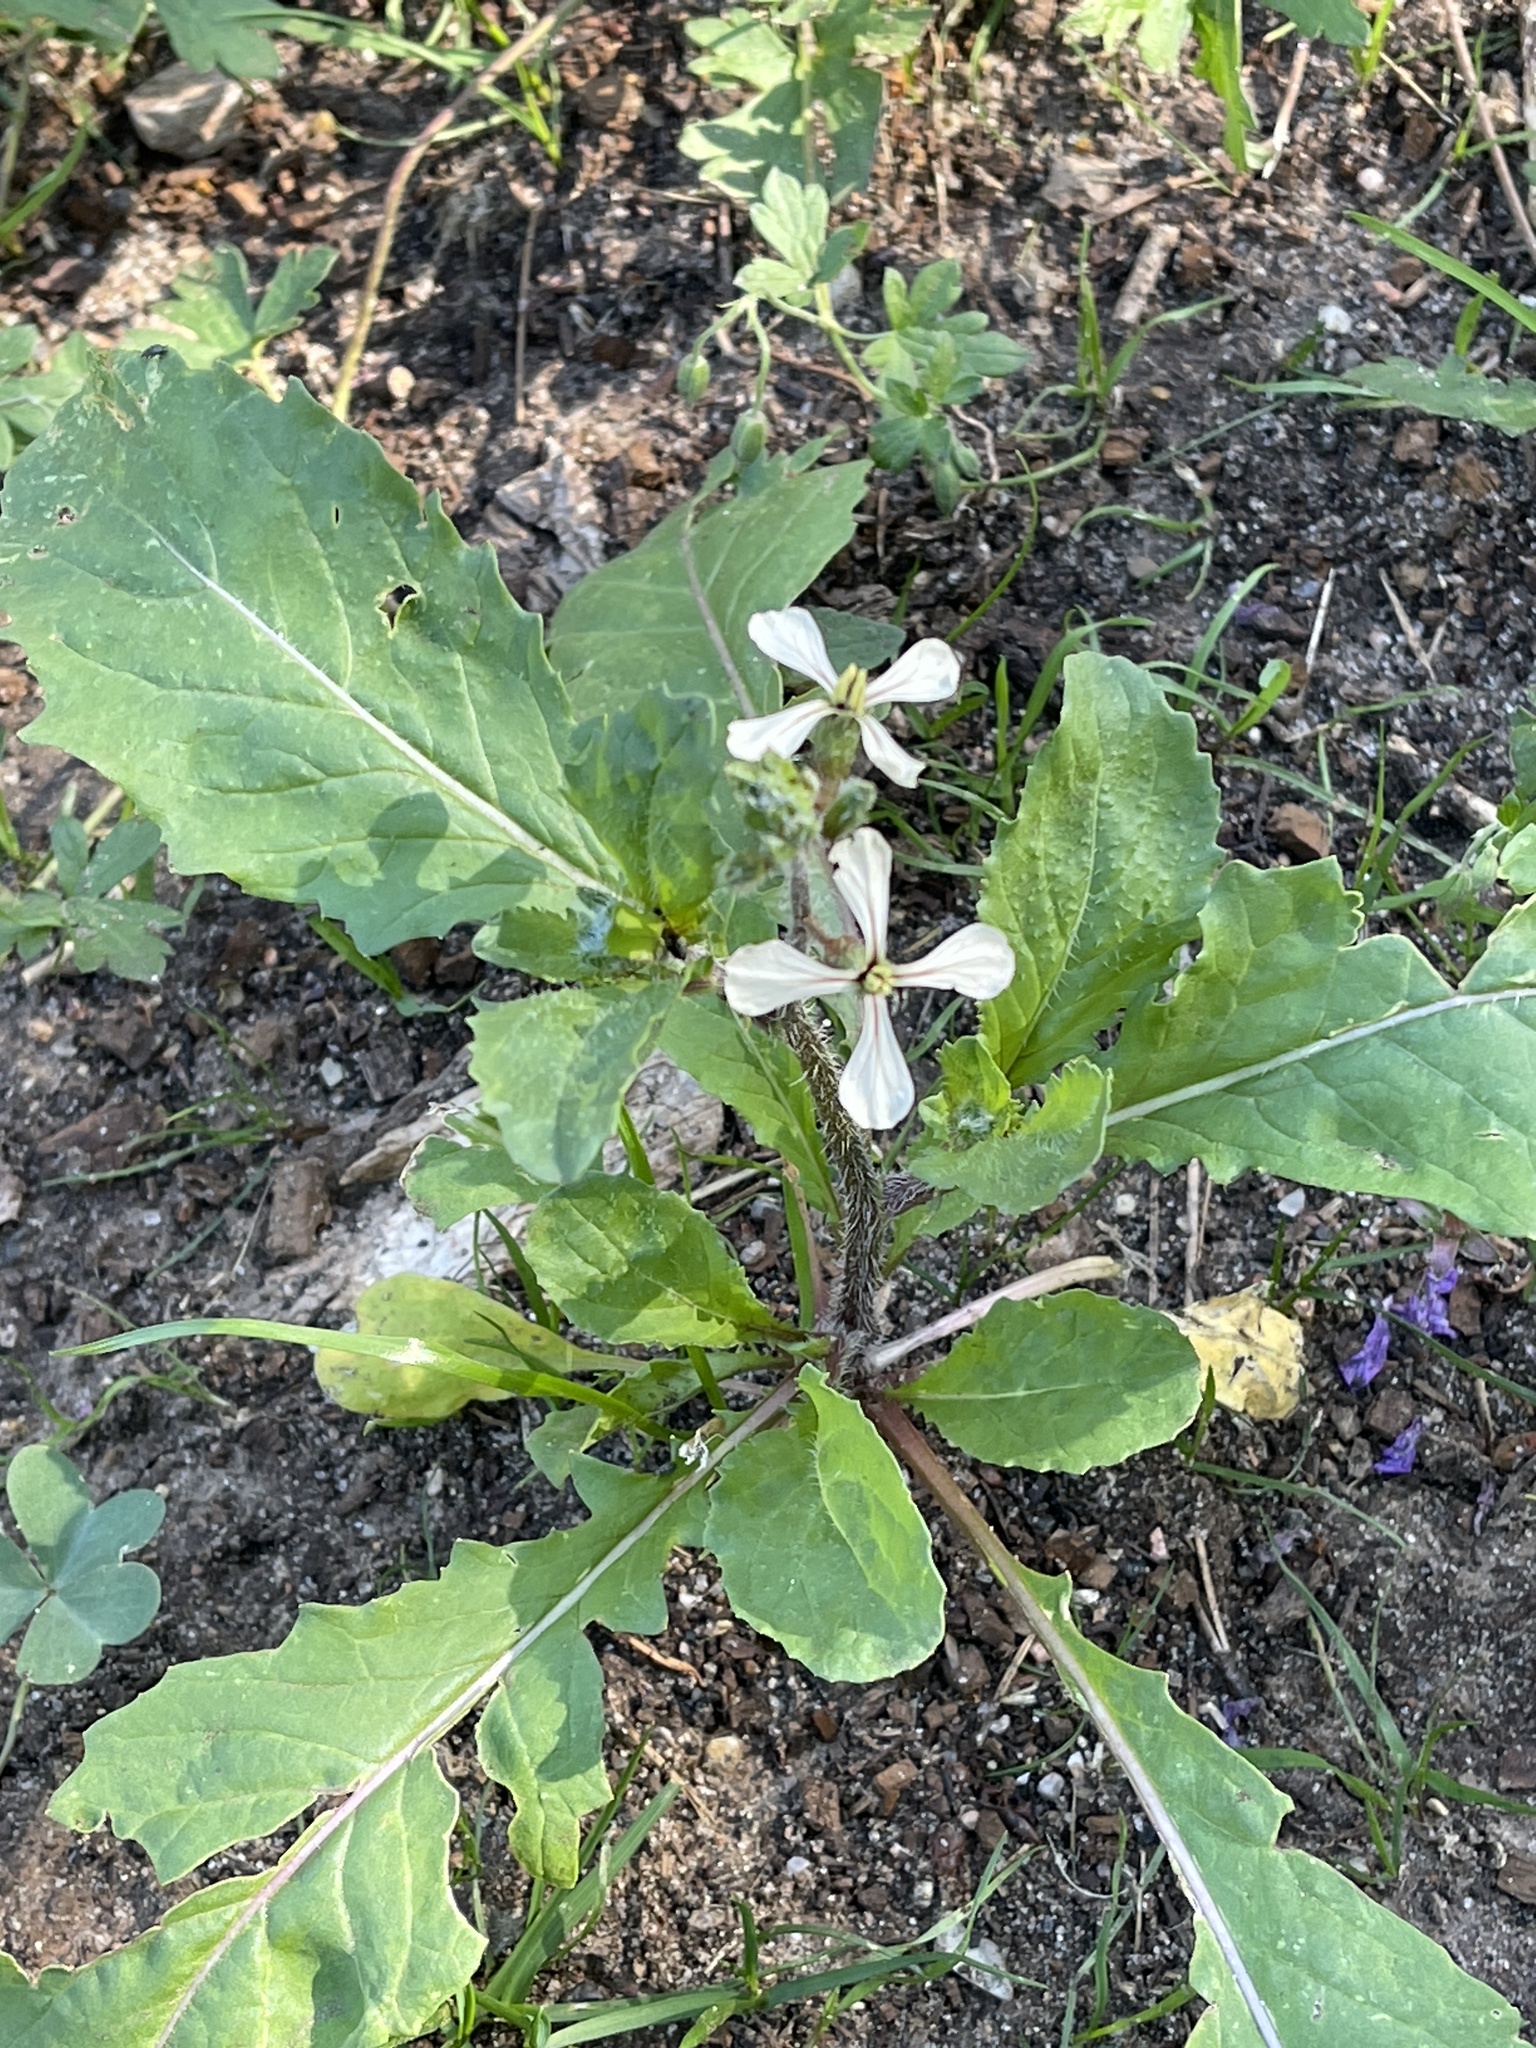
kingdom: Plantae
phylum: Tracheophyta
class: Magnoliopsida
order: Brassicales
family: Brassicaceae
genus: Eruca
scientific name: Eruca vesicaria
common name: Garden rocket
